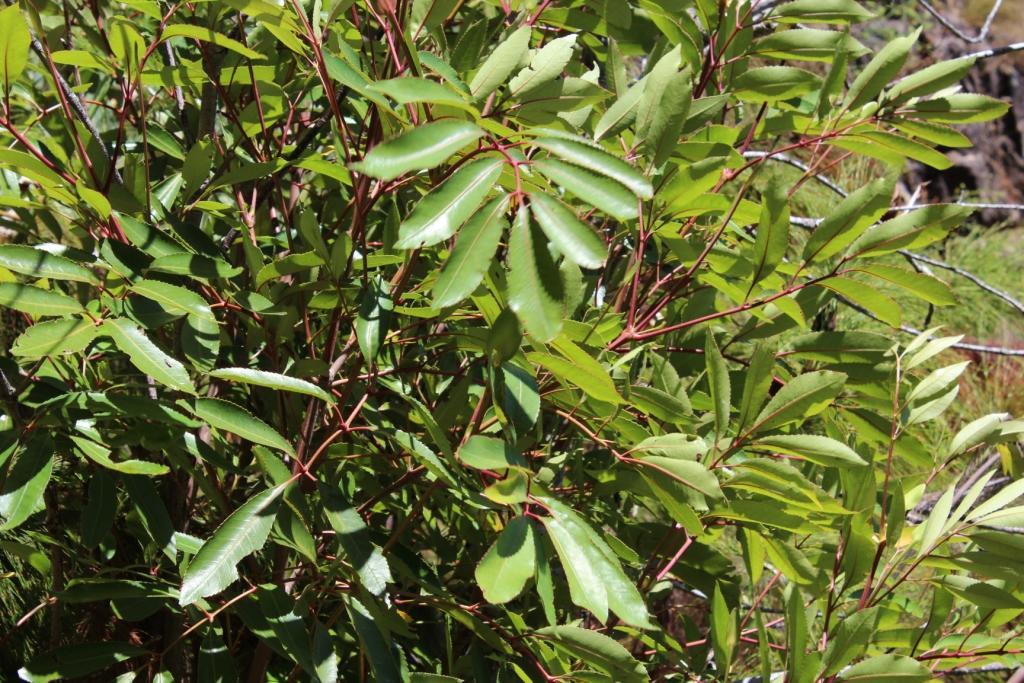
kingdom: Plantae
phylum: Tracheophyta
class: Magnoliopsida
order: Oxalidales
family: Cunoniaceae
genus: Cunonia
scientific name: Cunonia capensis
